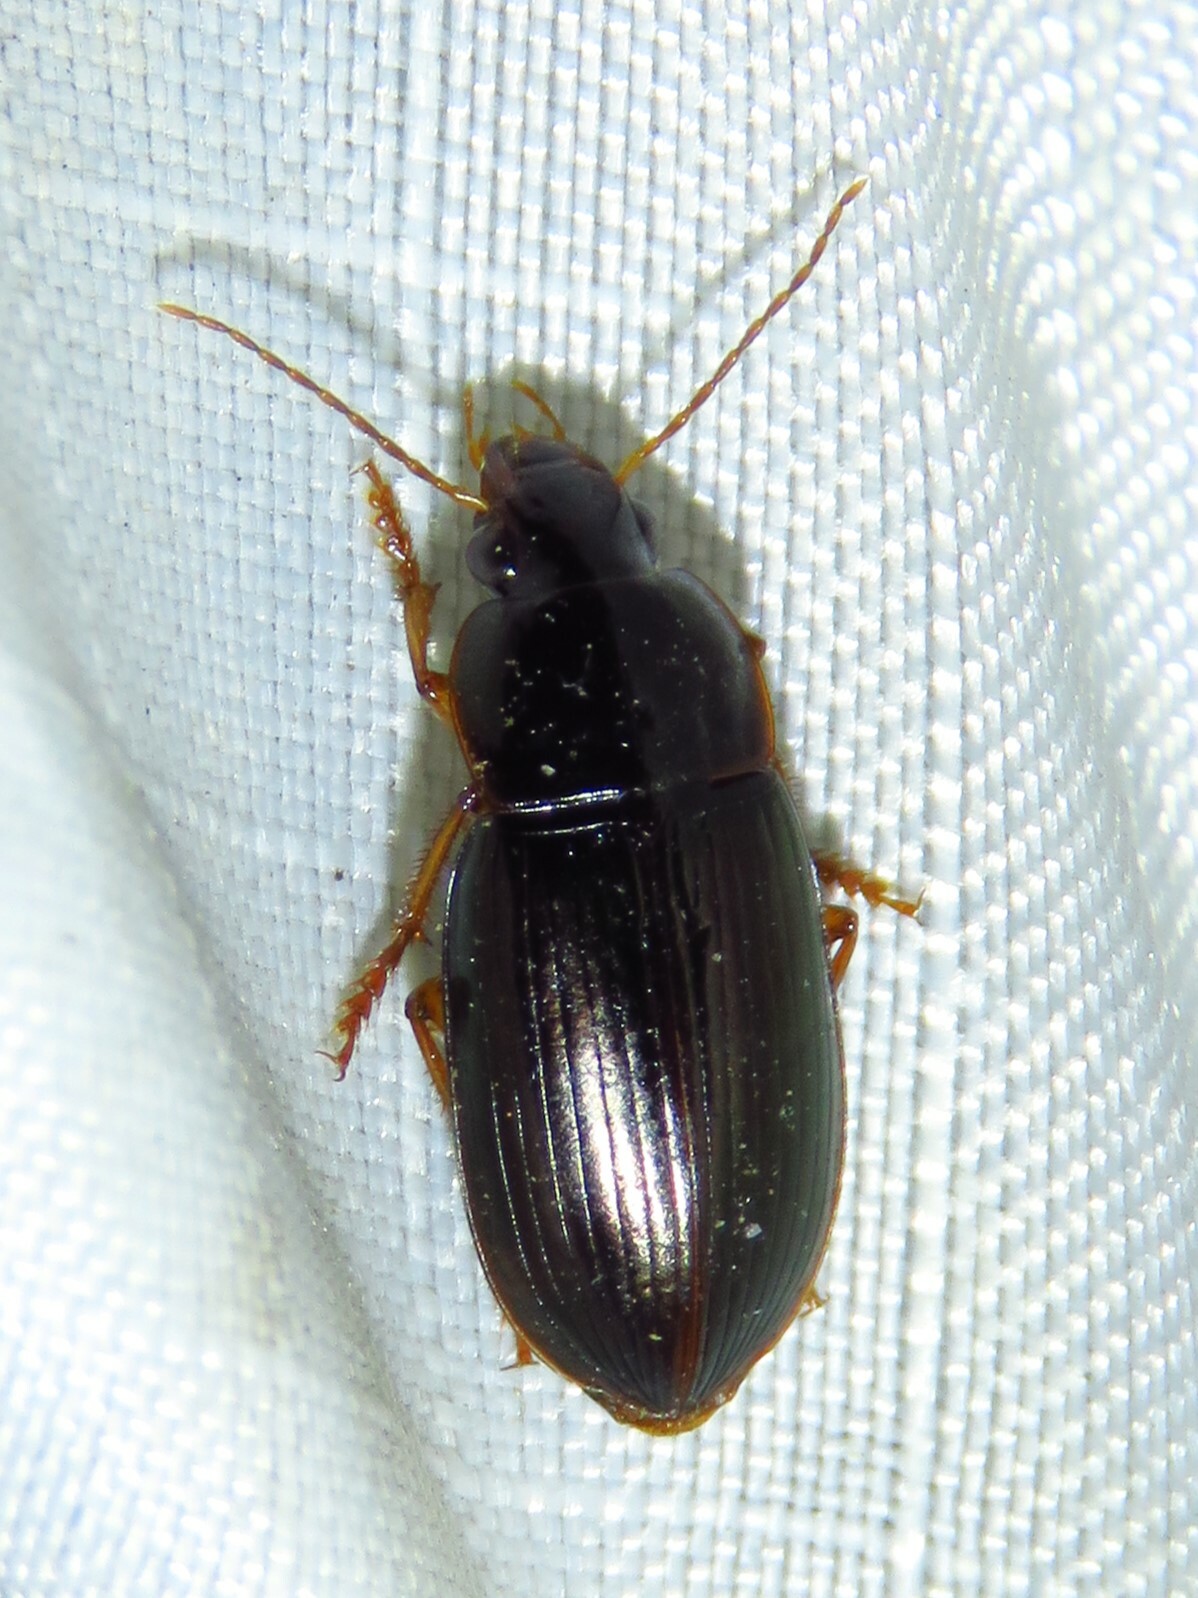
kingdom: Animalia
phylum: Arthropoda
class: Insecta
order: Coleoptera
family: Carabidae
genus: Notiobia
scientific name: Notiobia terminata
